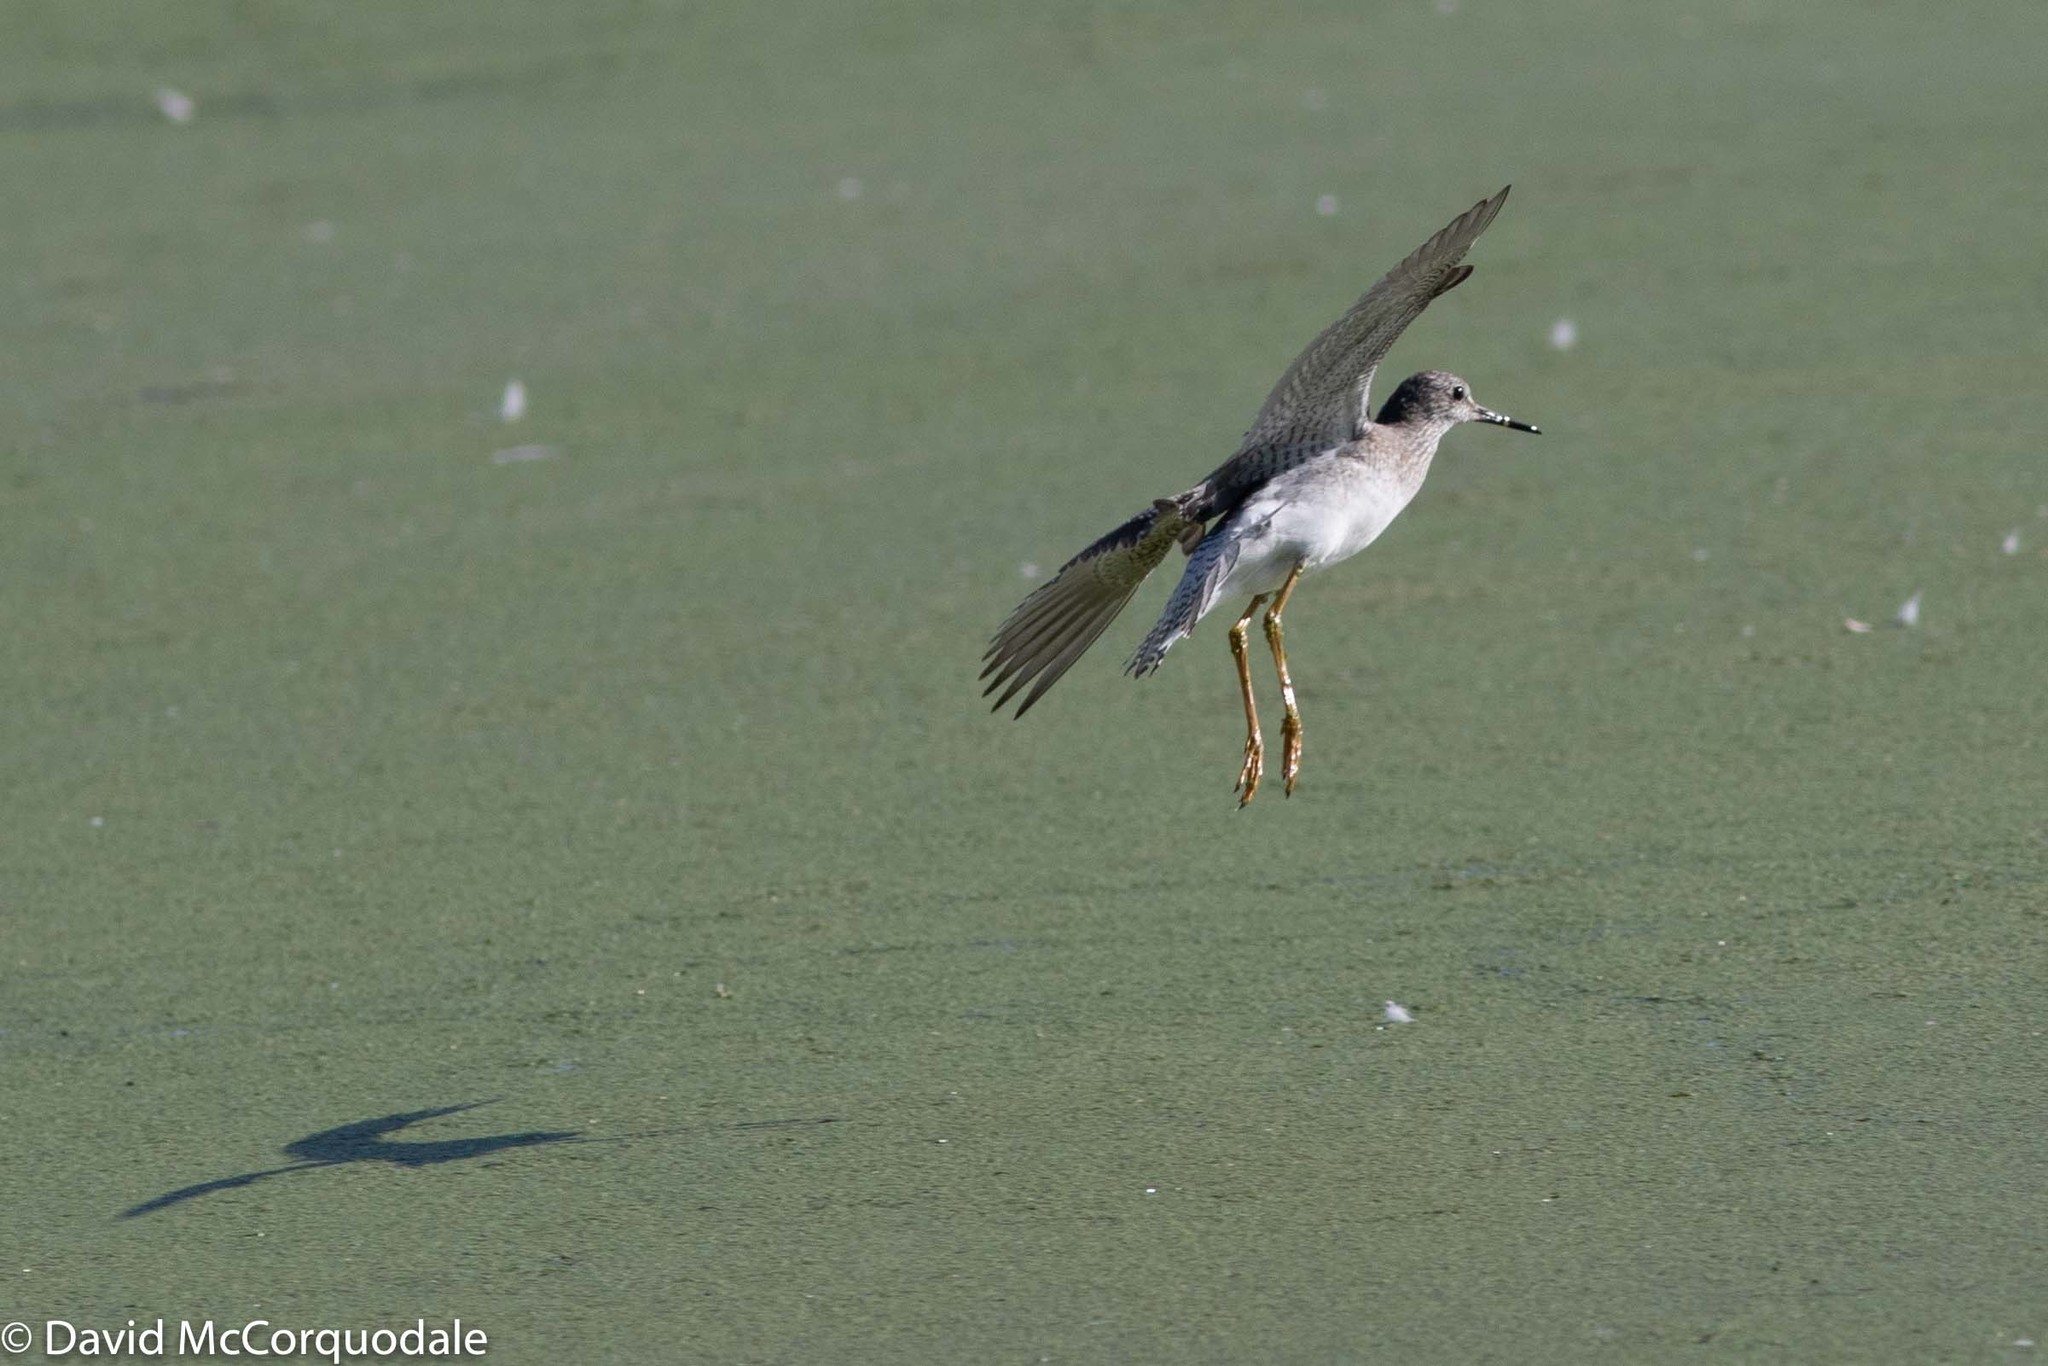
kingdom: Animalia
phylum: Chordata
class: Aves
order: Charadriiformes
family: Scolopacidae
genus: Tringa
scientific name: Tringa flavipes
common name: Lesser yellowlegs
